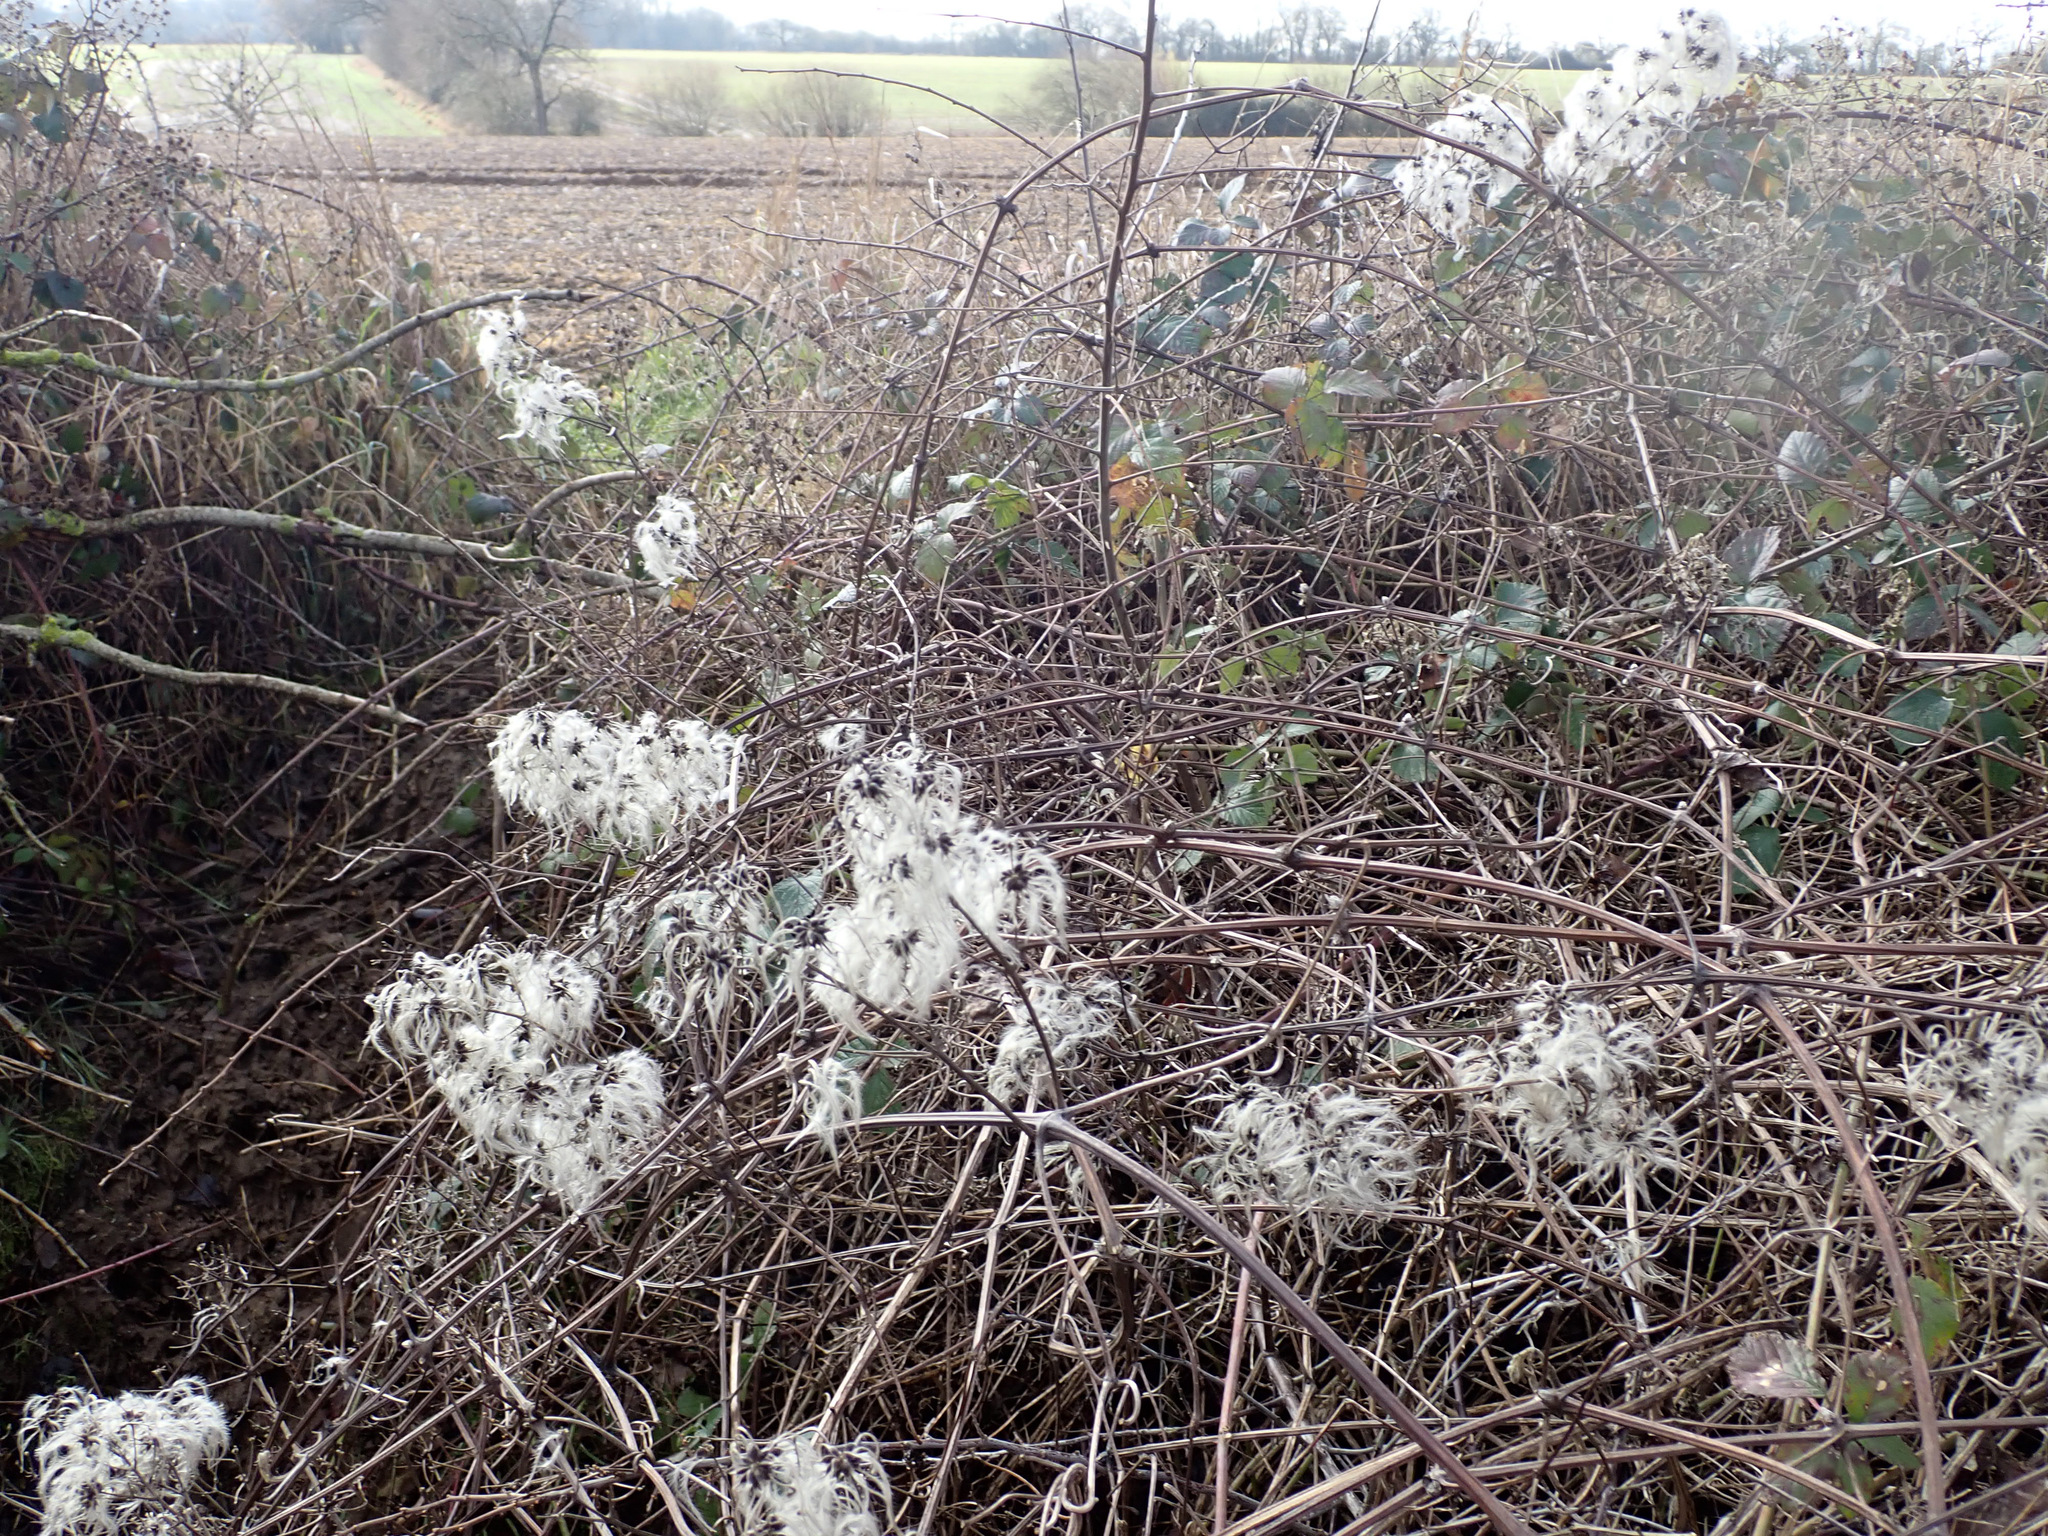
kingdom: Plantae
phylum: Tracheophyta
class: Magnoliopsida
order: Ranunculales
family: Ranunculaceae
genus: Clematis
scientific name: Clematis vitalba
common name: Evergreen clematis
